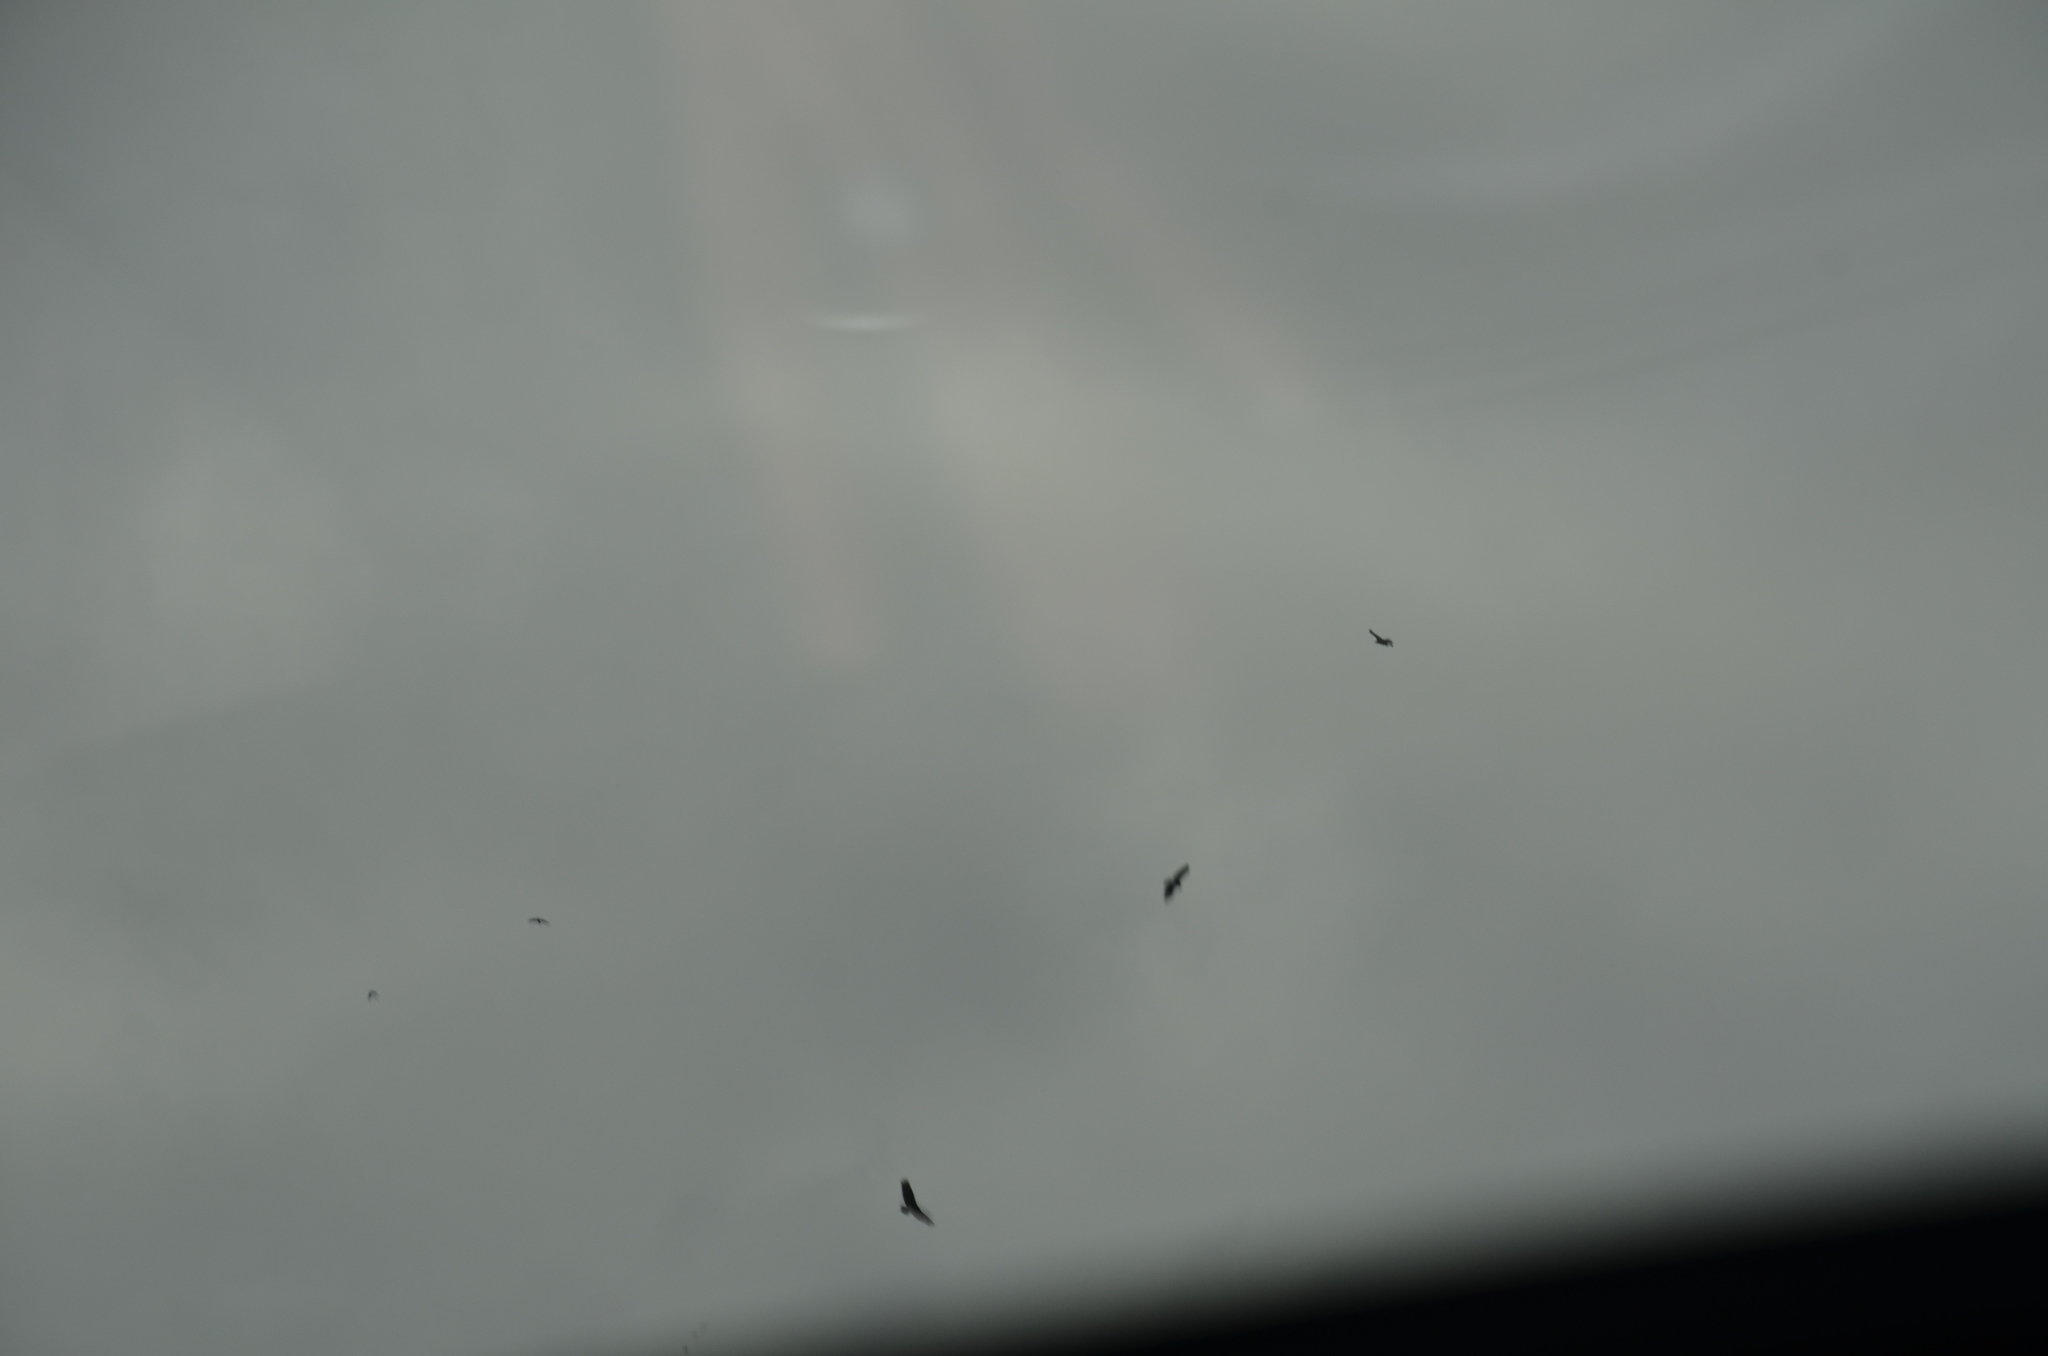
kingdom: Animalia
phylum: Chordata
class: Aves
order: Accipitriformes
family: Cathartidae
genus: Cathartes
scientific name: Cathartes aura
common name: Turkey vulture
